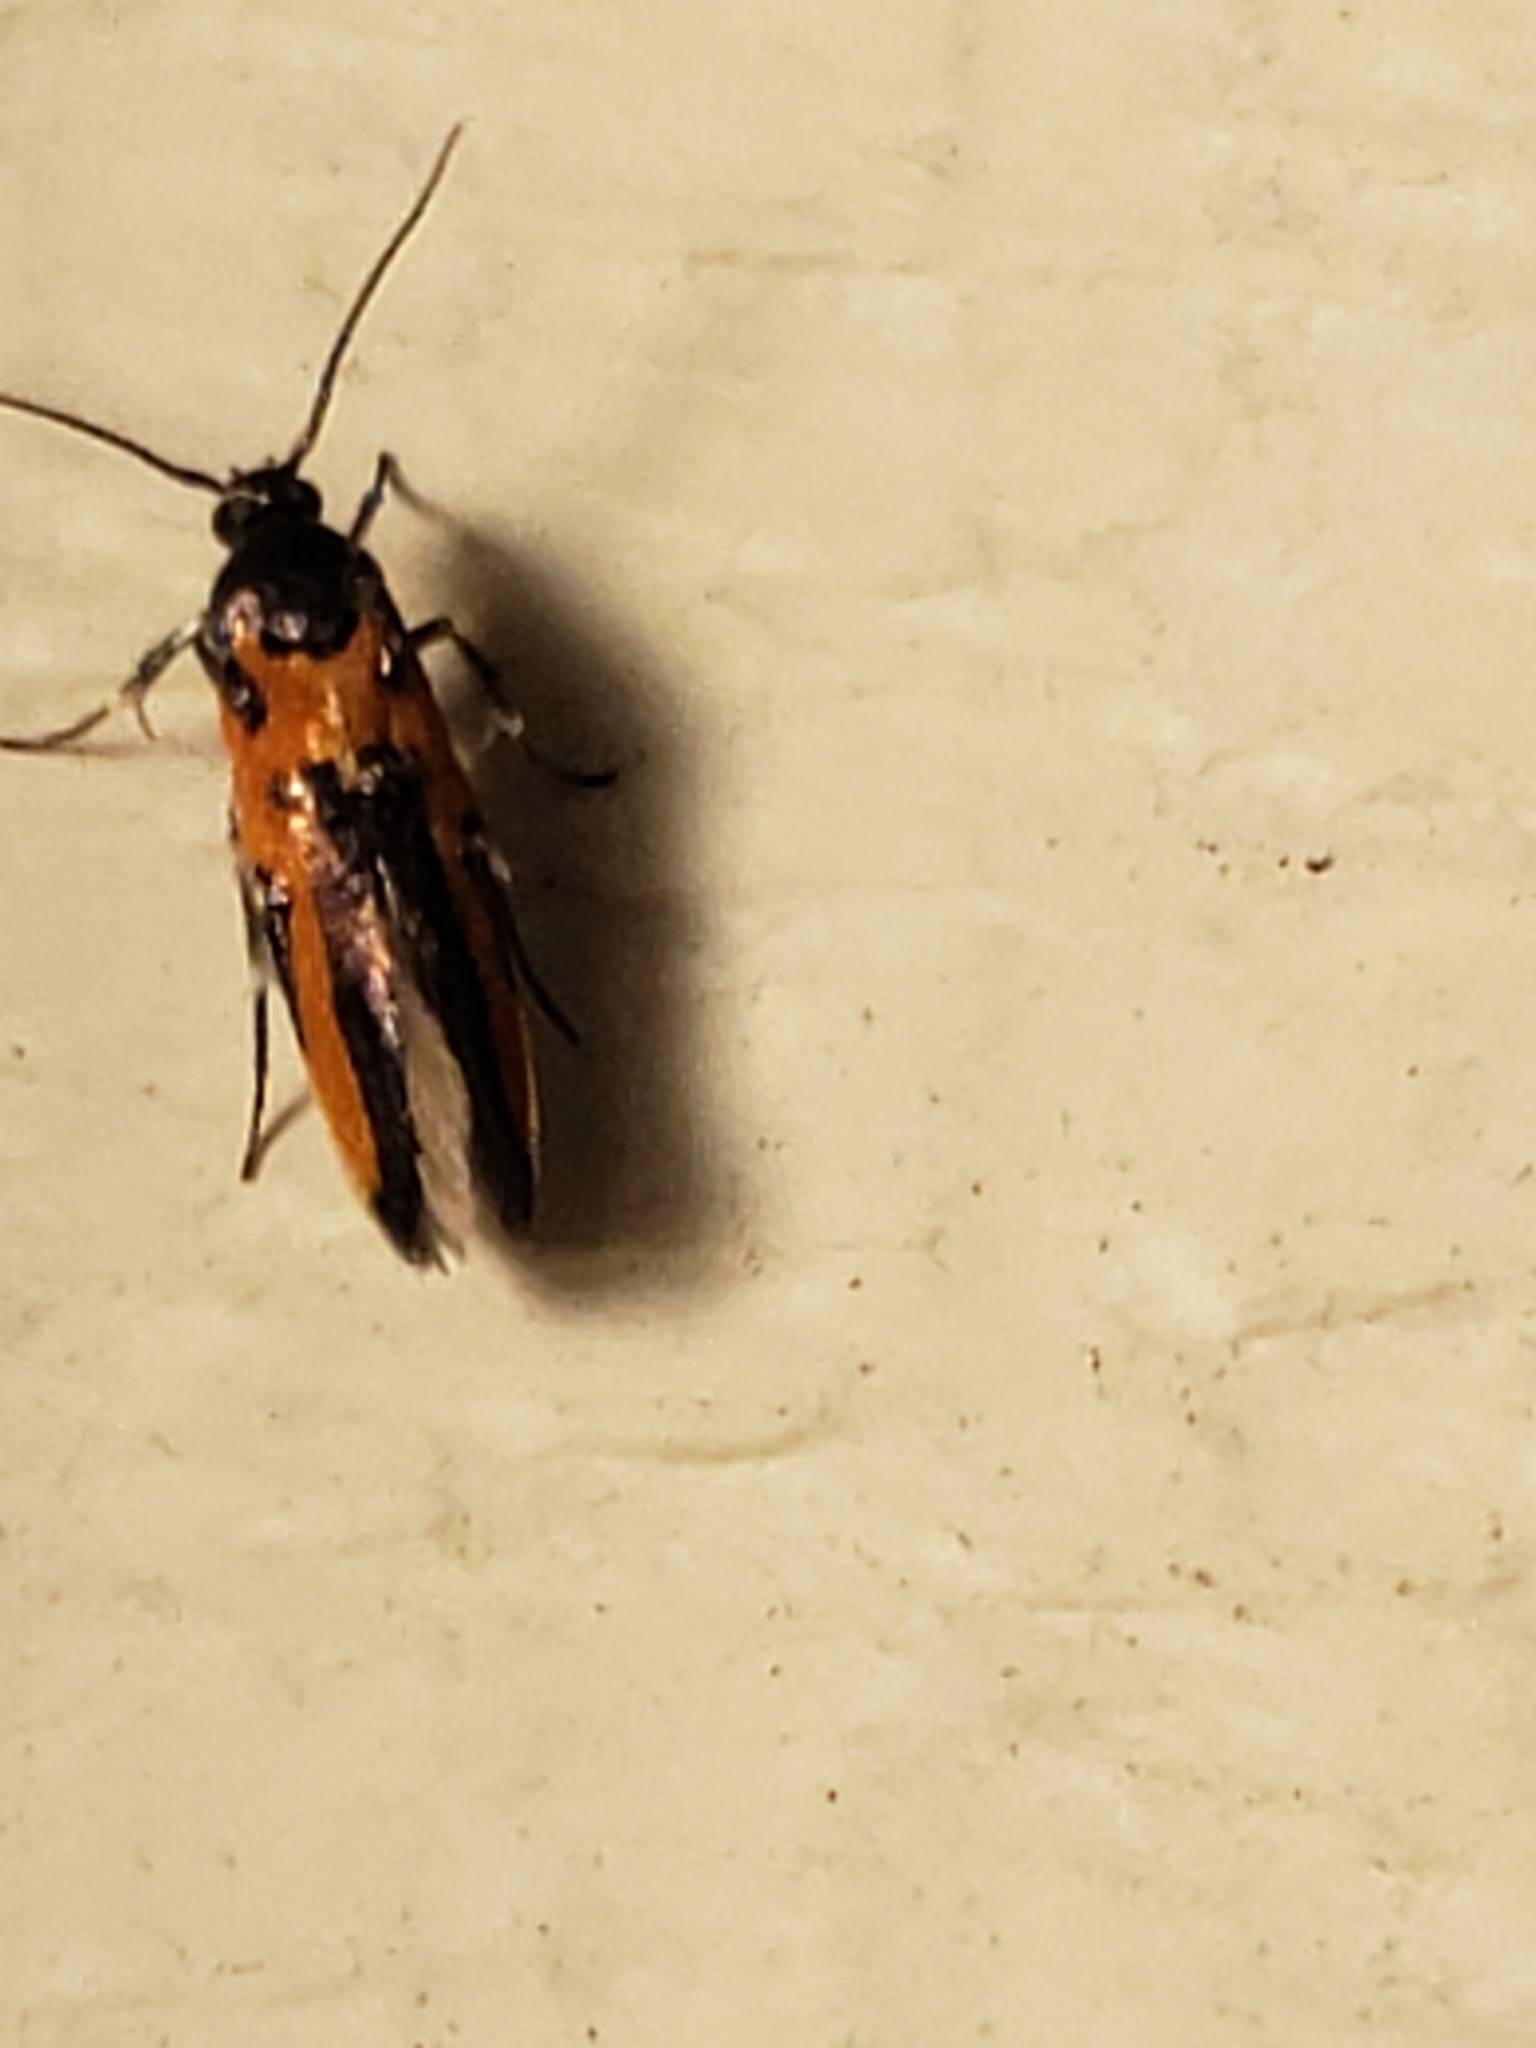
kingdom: Animalia
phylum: Arthropoda
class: Insecta
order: Lepidoptera
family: Cosmopterigidae
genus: Euclemensia
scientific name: Euclemensia bassettella
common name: Kermes scale moth
